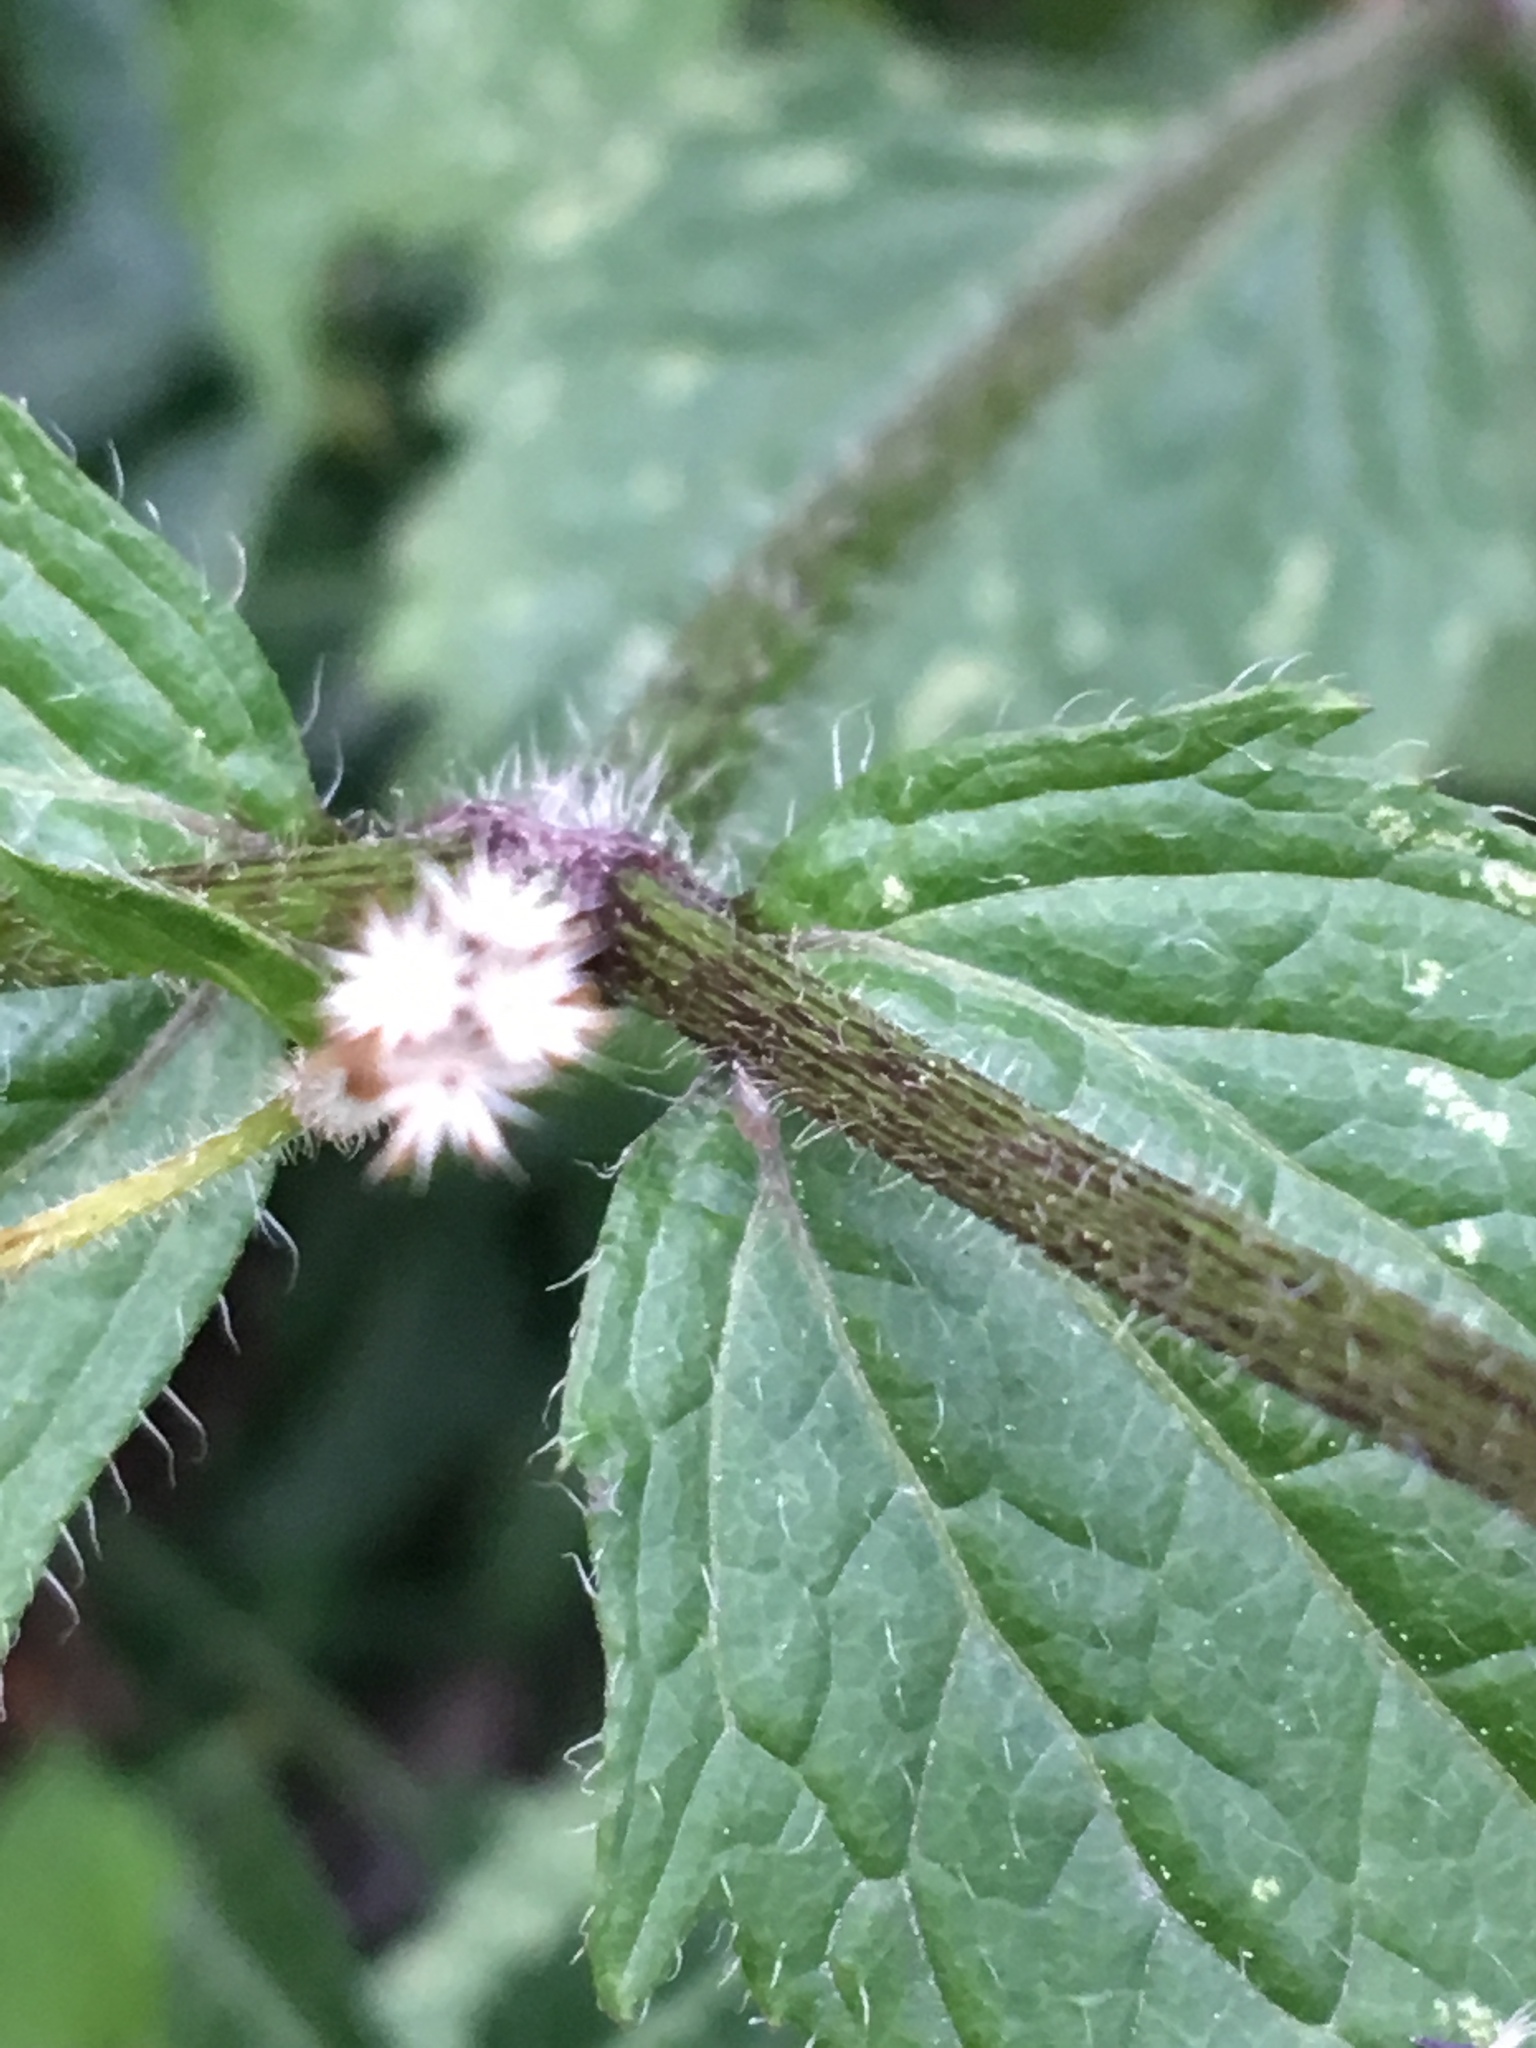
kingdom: Plantae
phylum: Tracheophyta
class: Magnoliopsida
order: Asterales
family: Asteraceae
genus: Galinsoga
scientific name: Galinsoga quadriradiata
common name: Shaggy soldier
